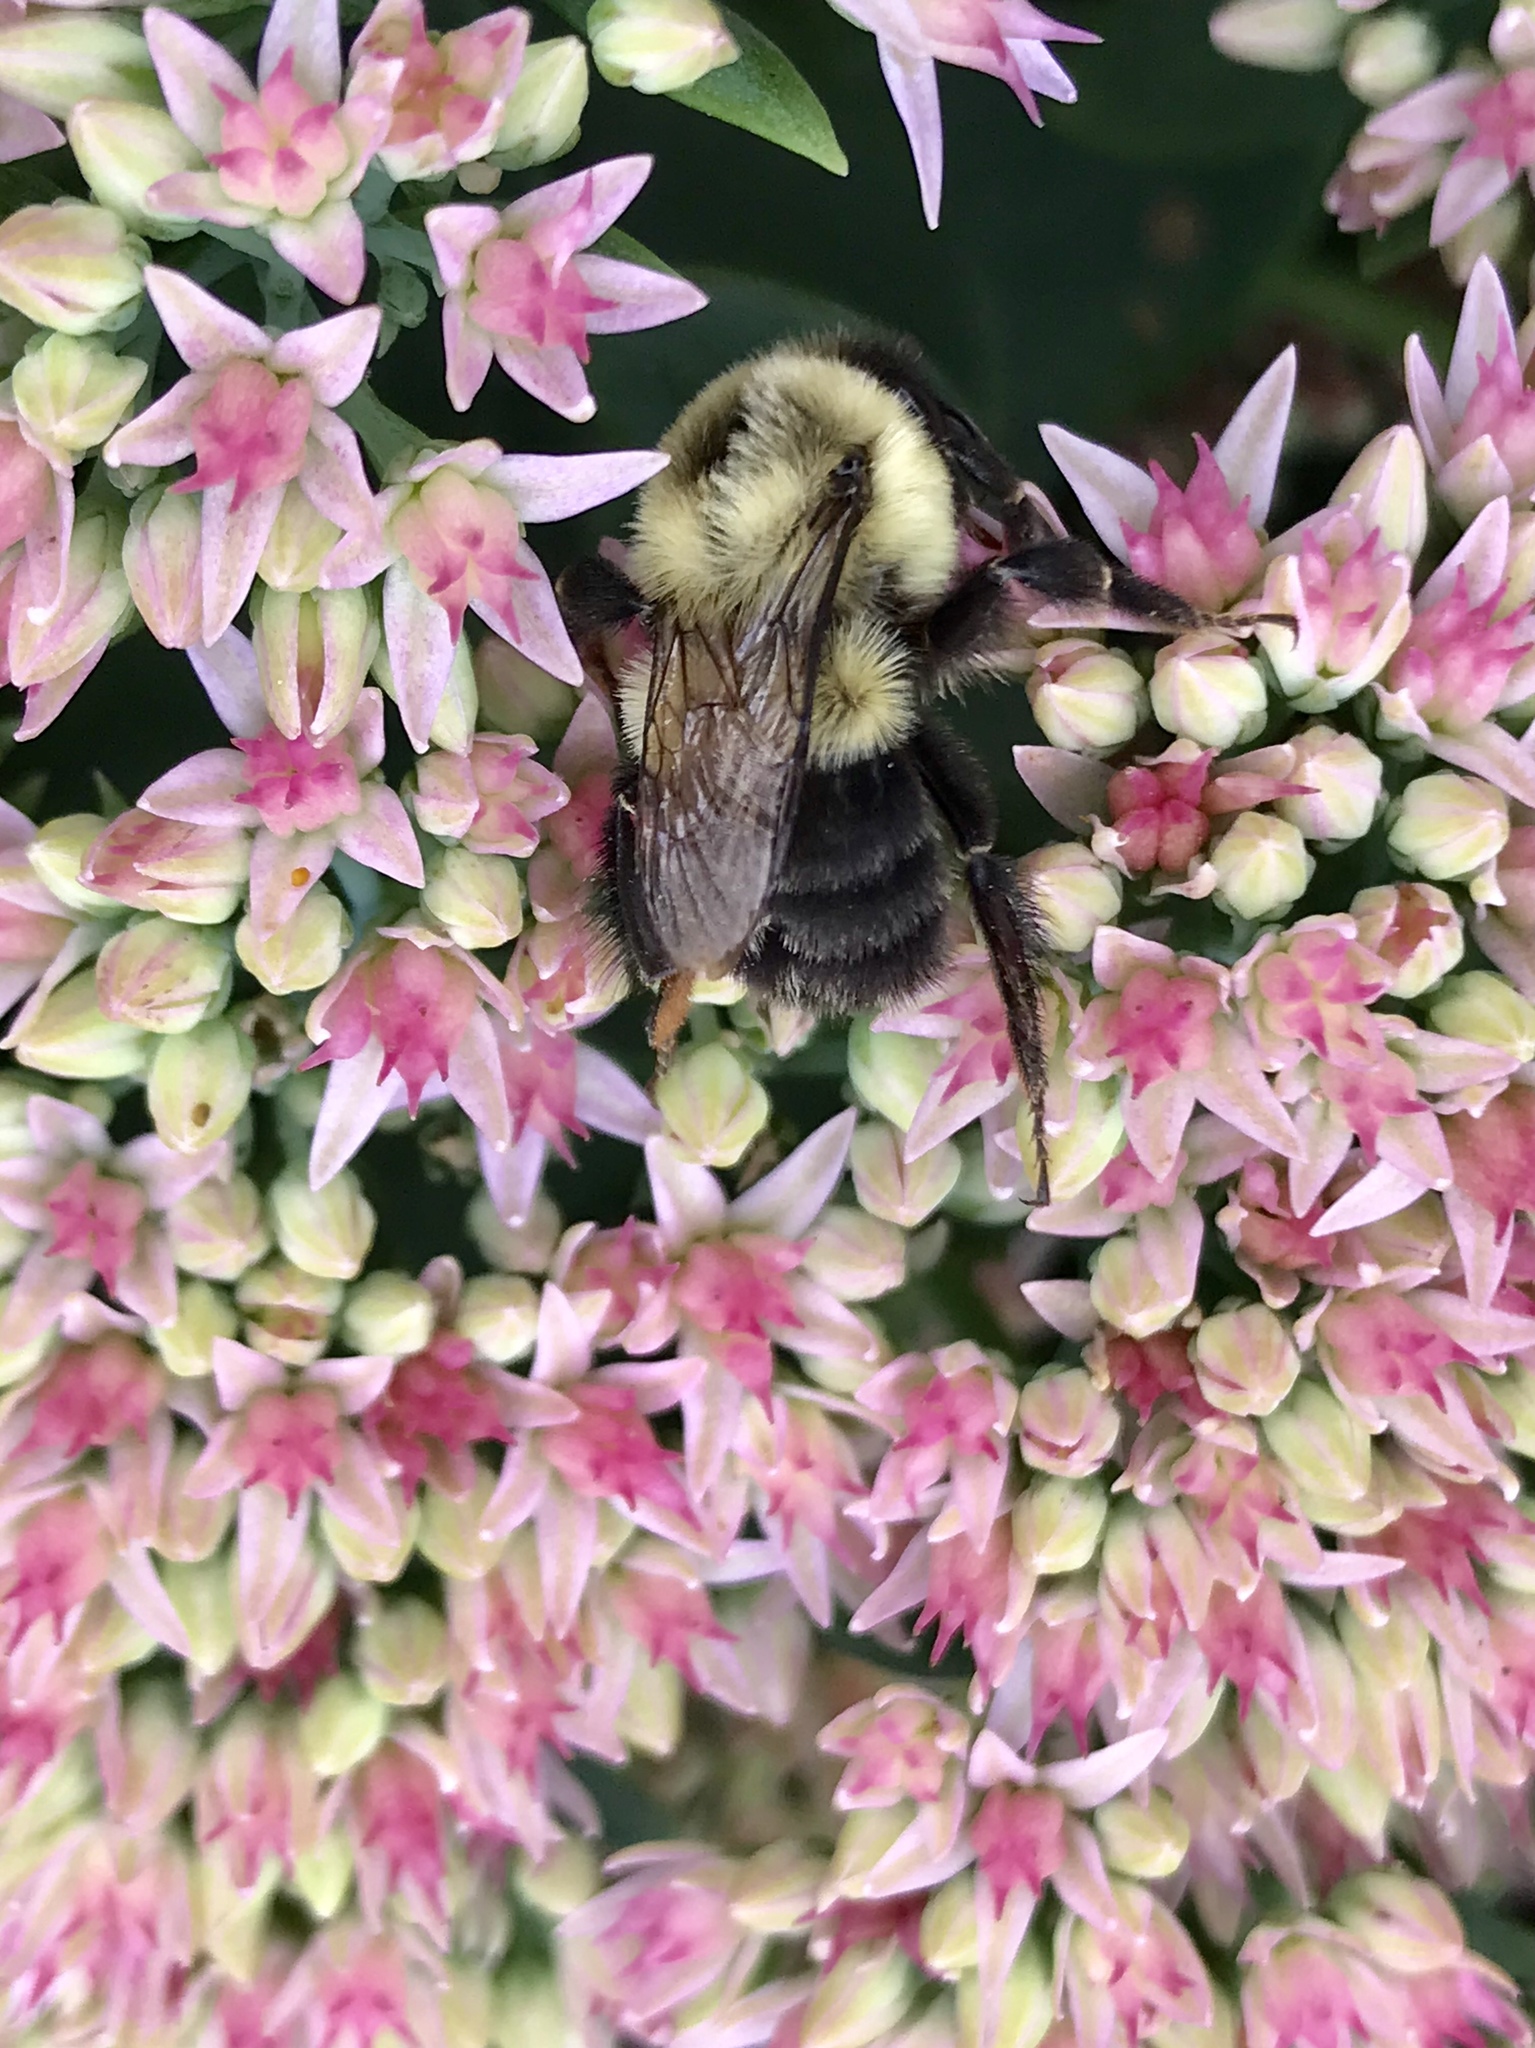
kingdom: Animalia
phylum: Arthropoda
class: Insecta
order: Hymenoptera
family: Apidae
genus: Bombus
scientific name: Bombus impatiens
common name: Common eastern bumble bee
